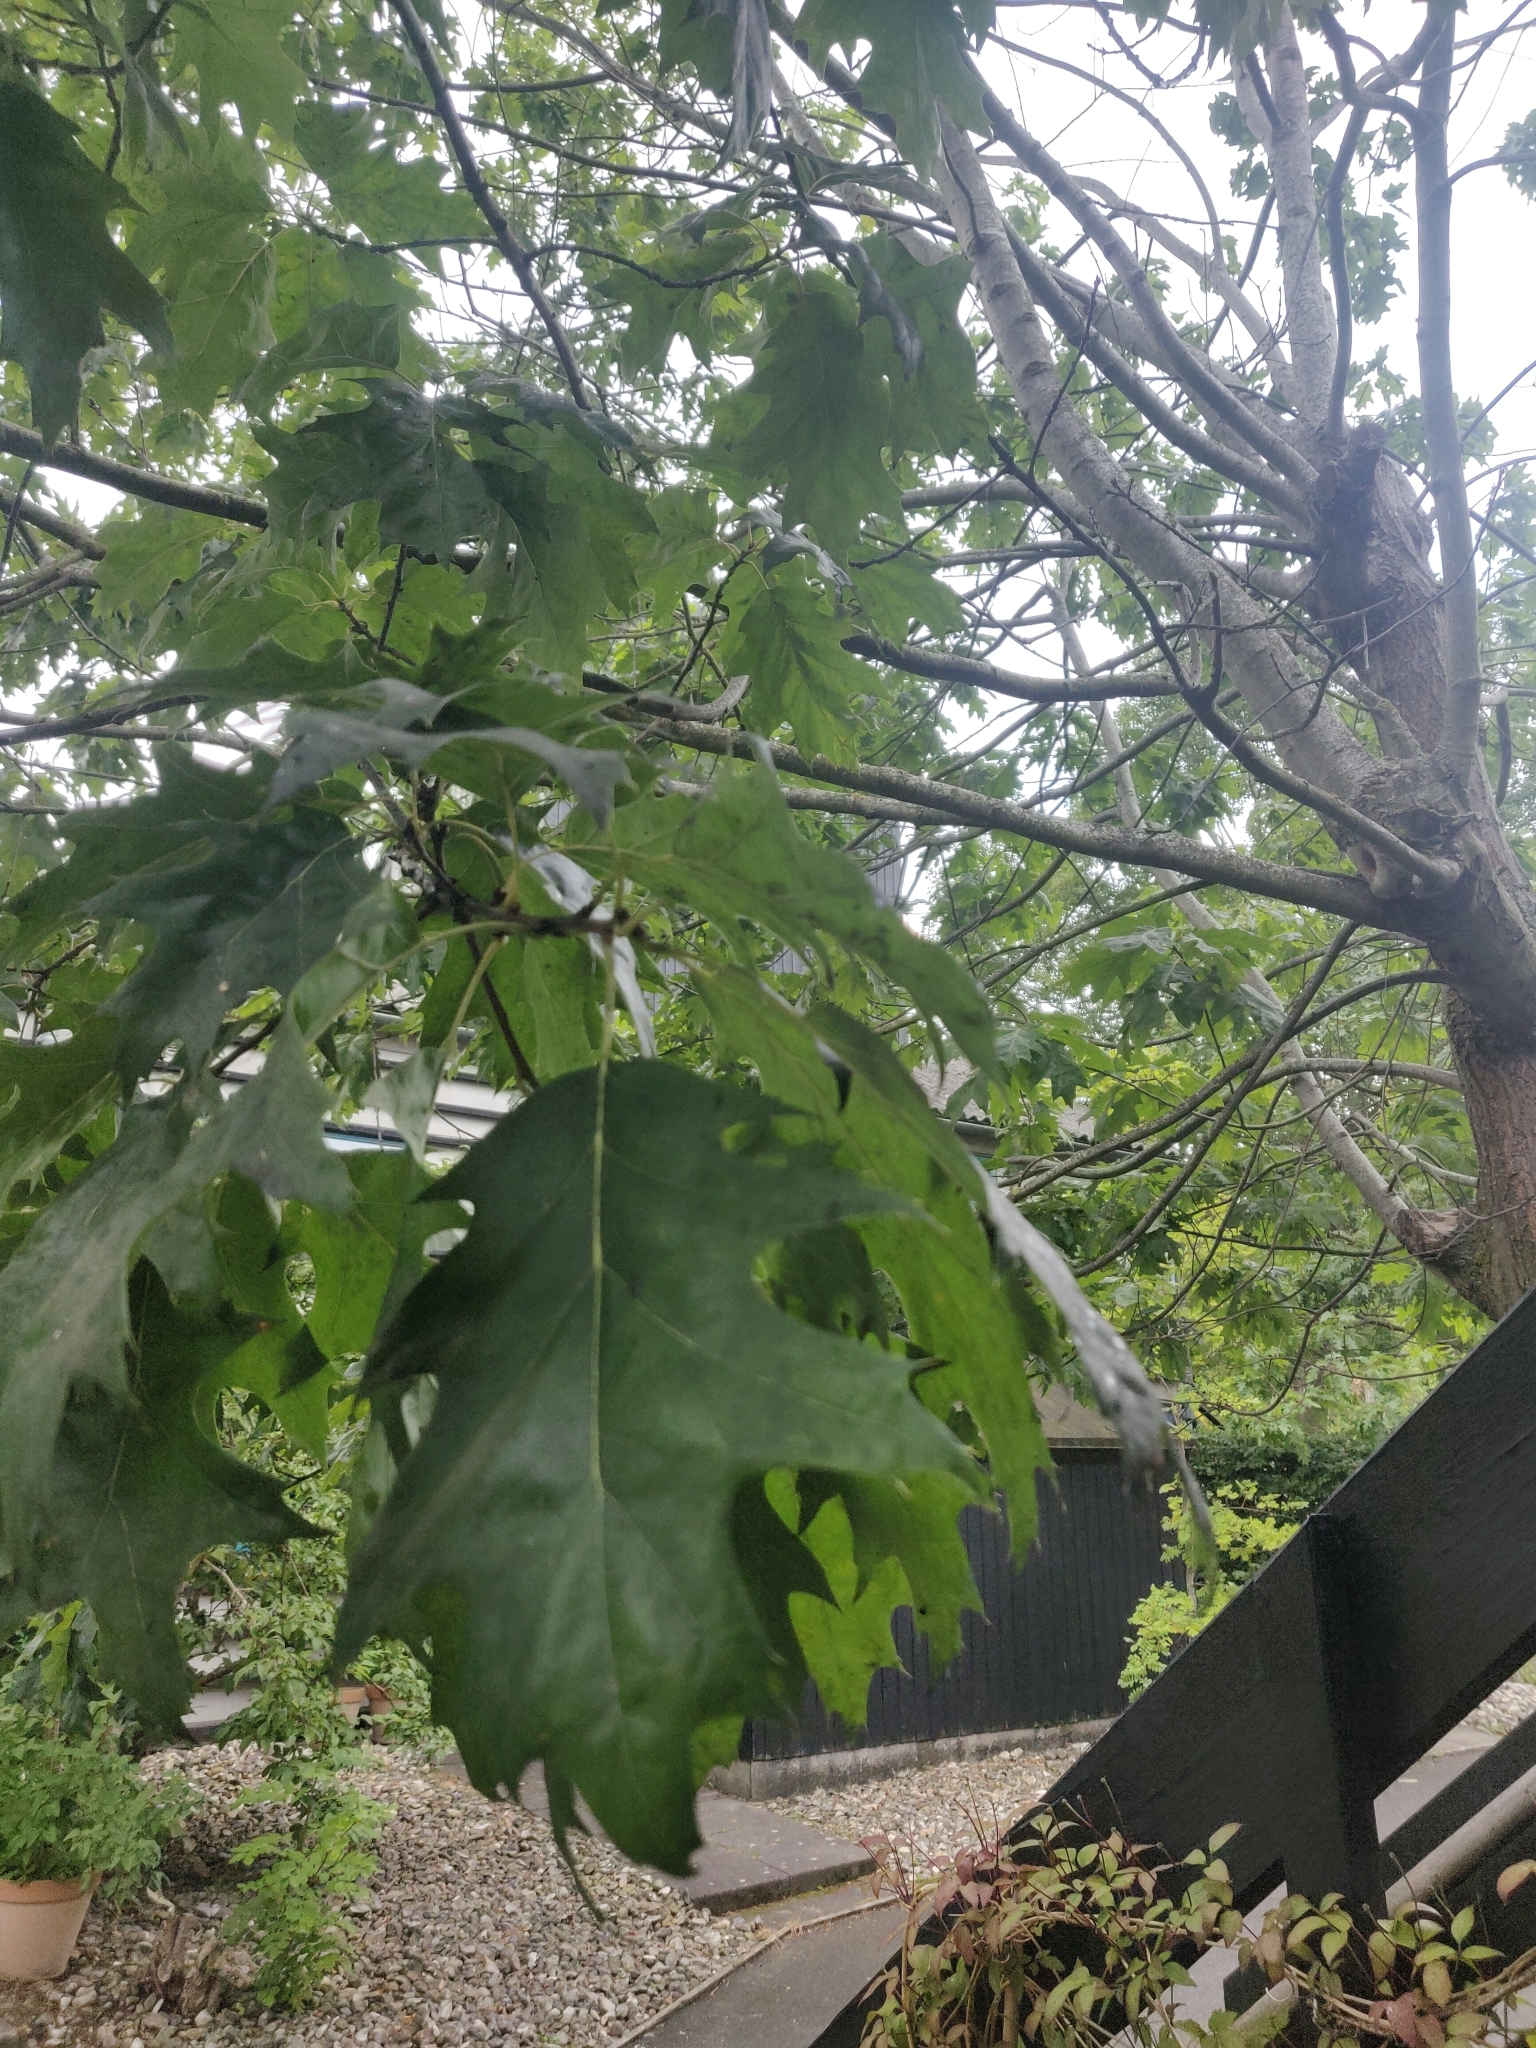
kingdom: Plantae
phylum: Tracheophyta
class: Magnoliopsida
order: Fagales
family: Fagaceae
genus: Quercus
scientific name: Quercus rubra
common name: Red oak
